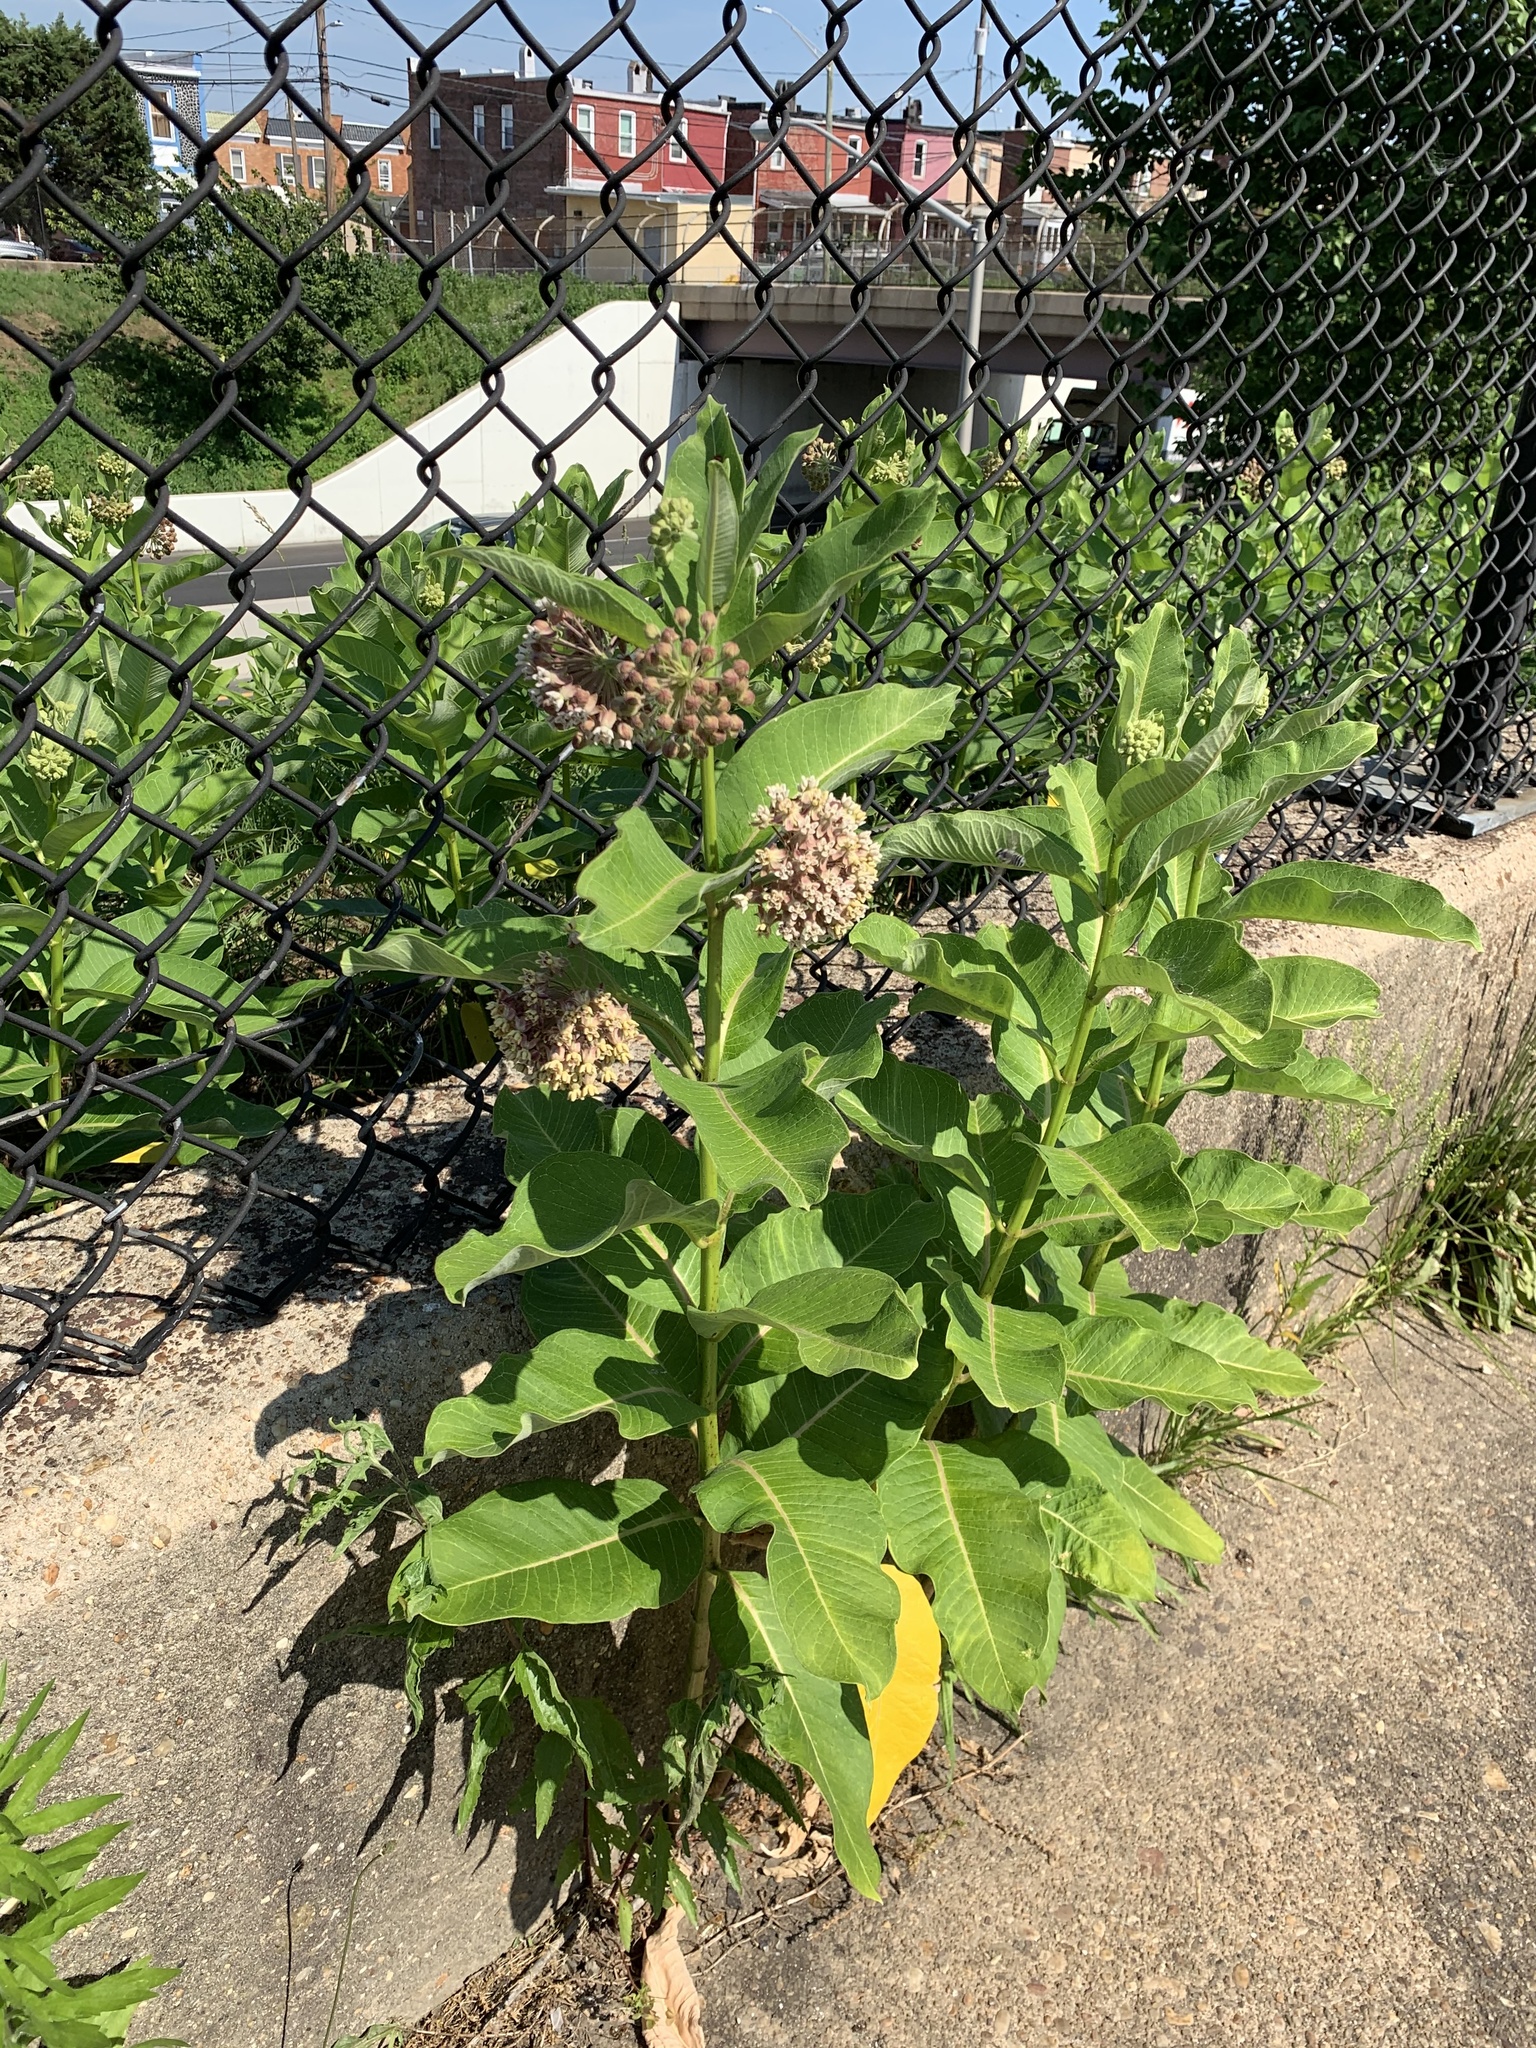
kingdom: Plantae
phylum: Tracheophyta
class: Magnoliopsida
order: Gentianales
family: Apocynaceae
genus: Asclepias
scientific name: Asclepias syriaca
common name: Common milkweed
